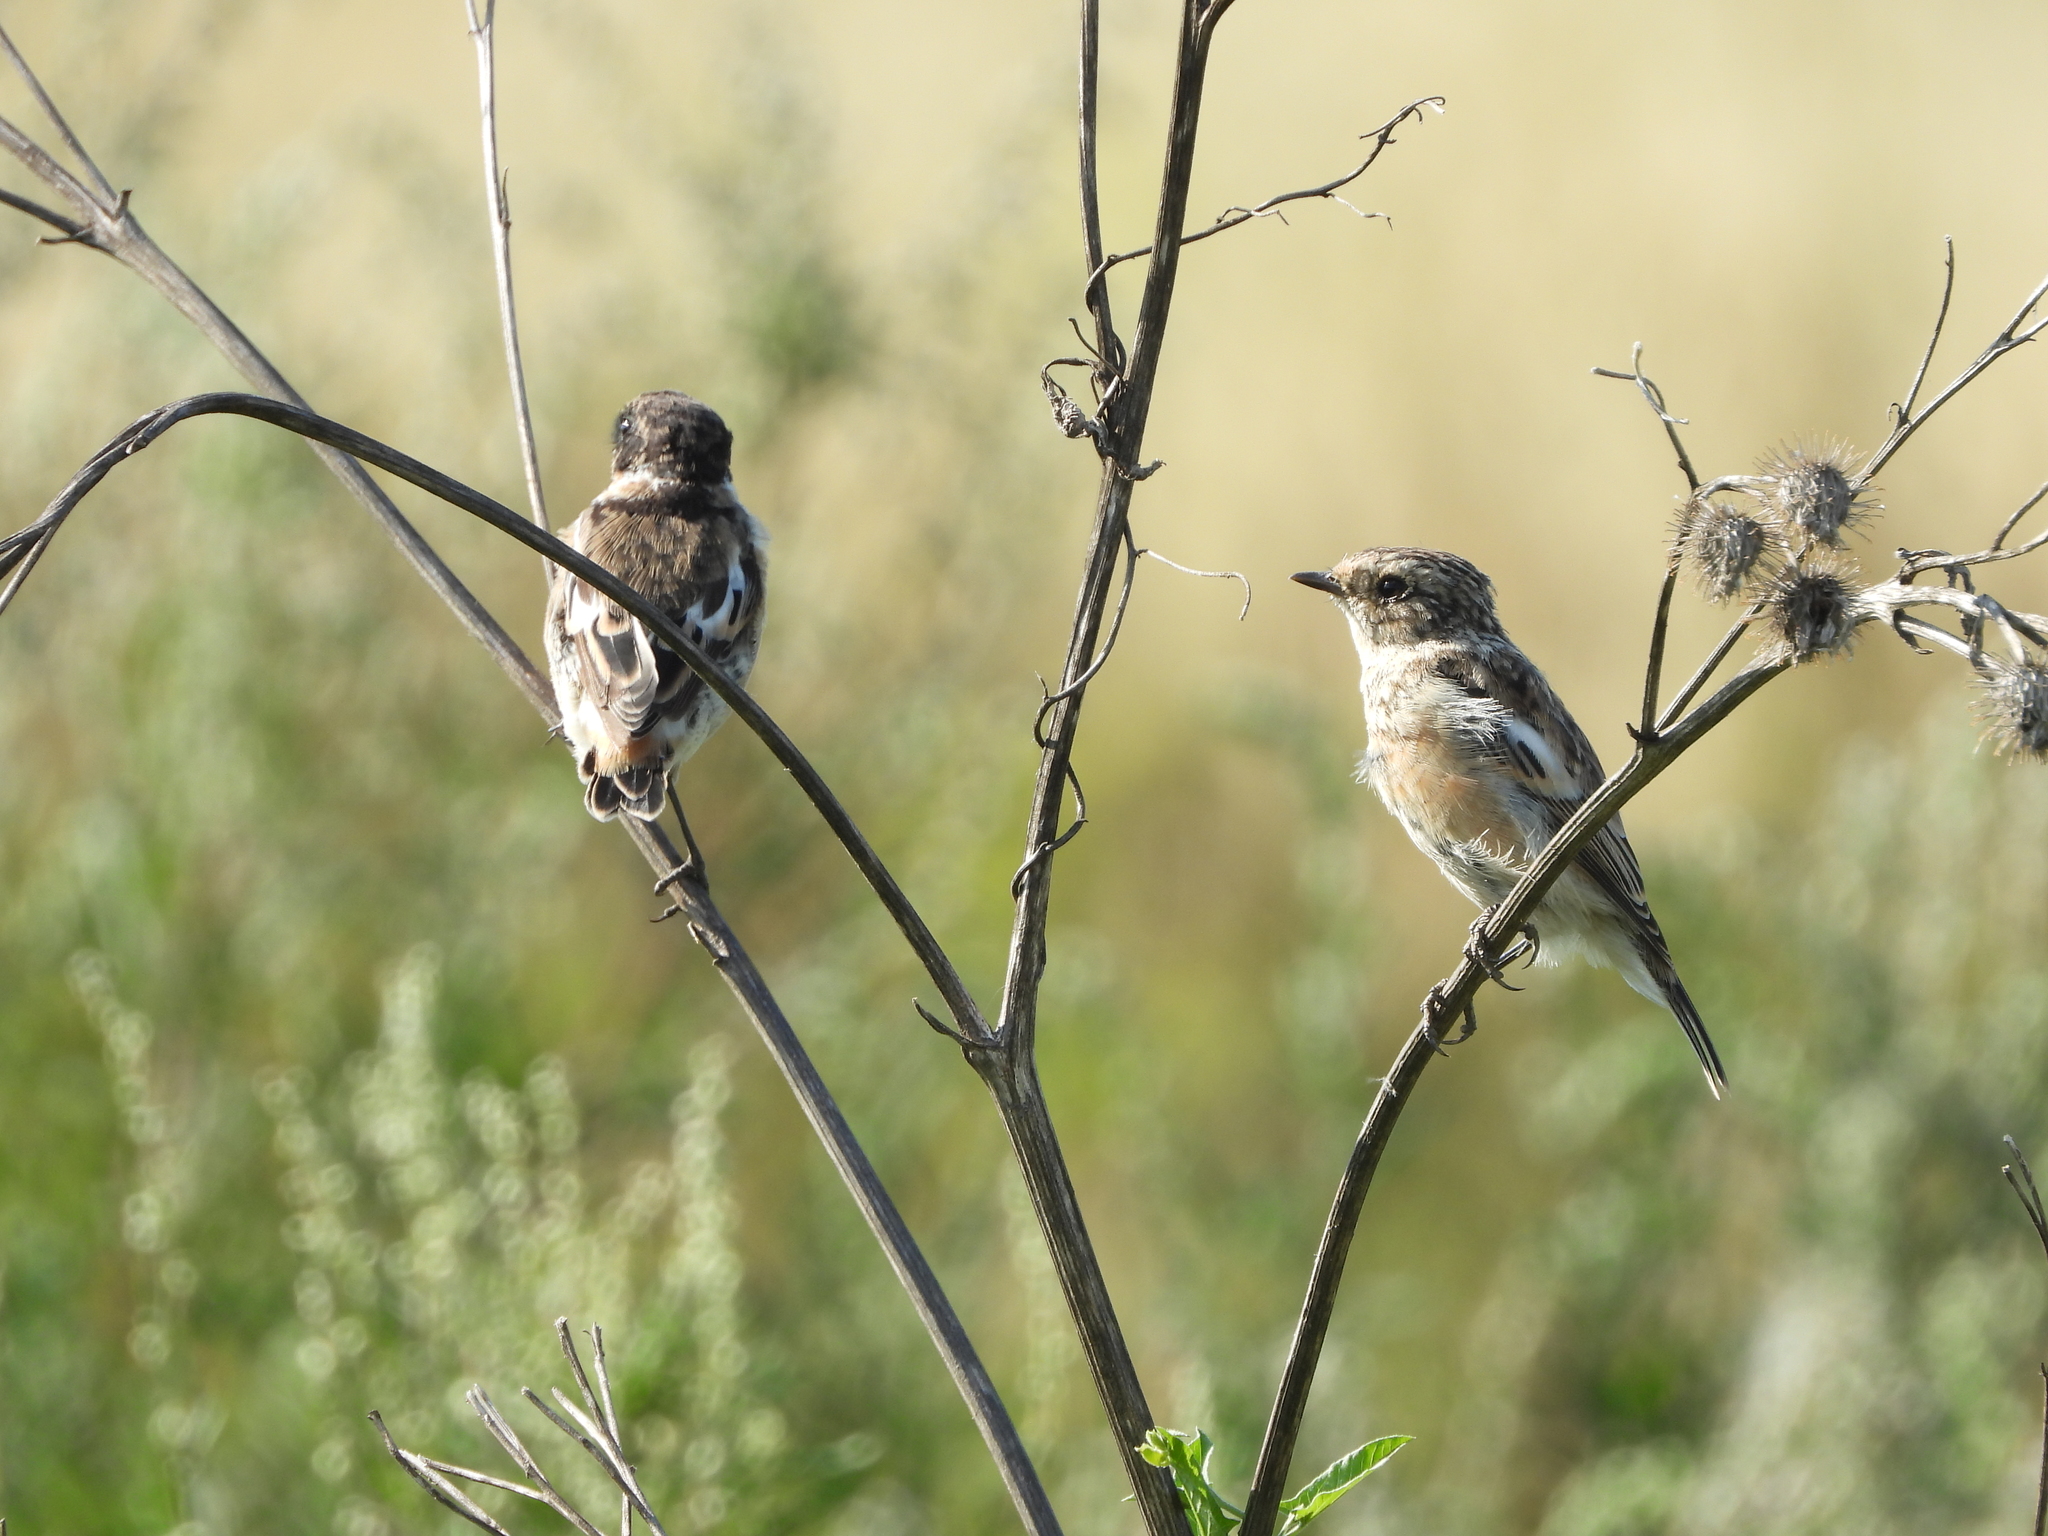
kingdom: Animalia
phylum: Chordata
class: Aves
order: Passeriformes
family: Muscicapidae
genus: Saxicola
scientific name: Saxicola maurus
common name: Siberian stonechat
